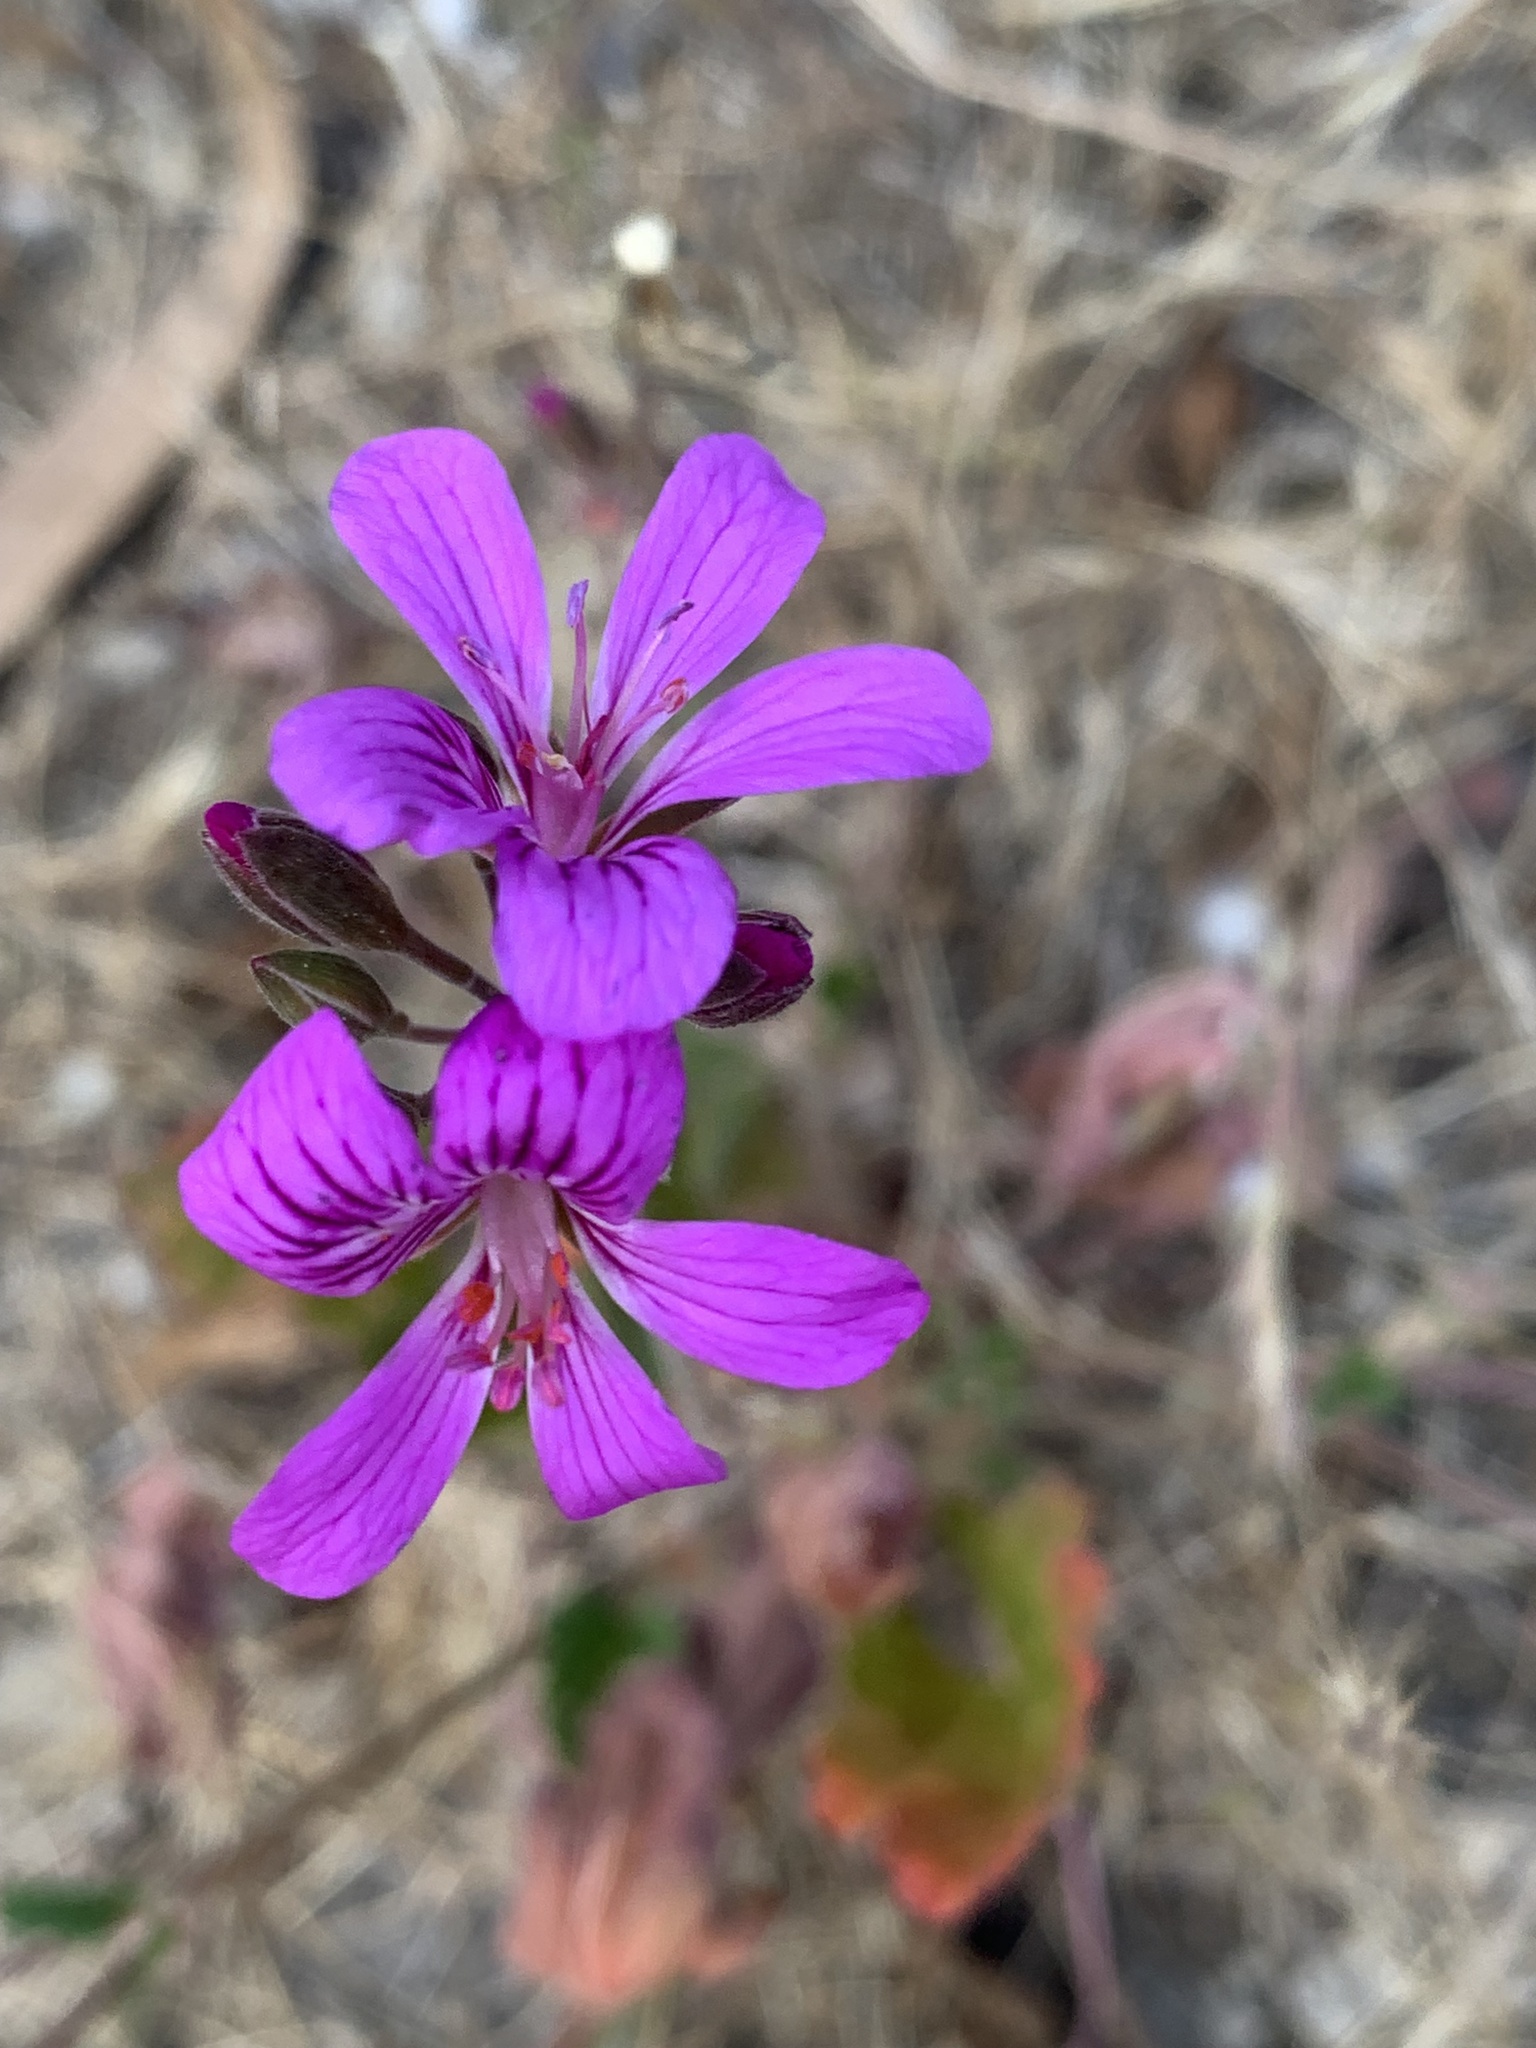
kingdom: Plantae
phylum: Tracheophyta
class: Magnoliopsida
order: Geraniales
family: Geraniaceae
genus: Pelargonium
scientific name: Pelargonium rodneyanum
